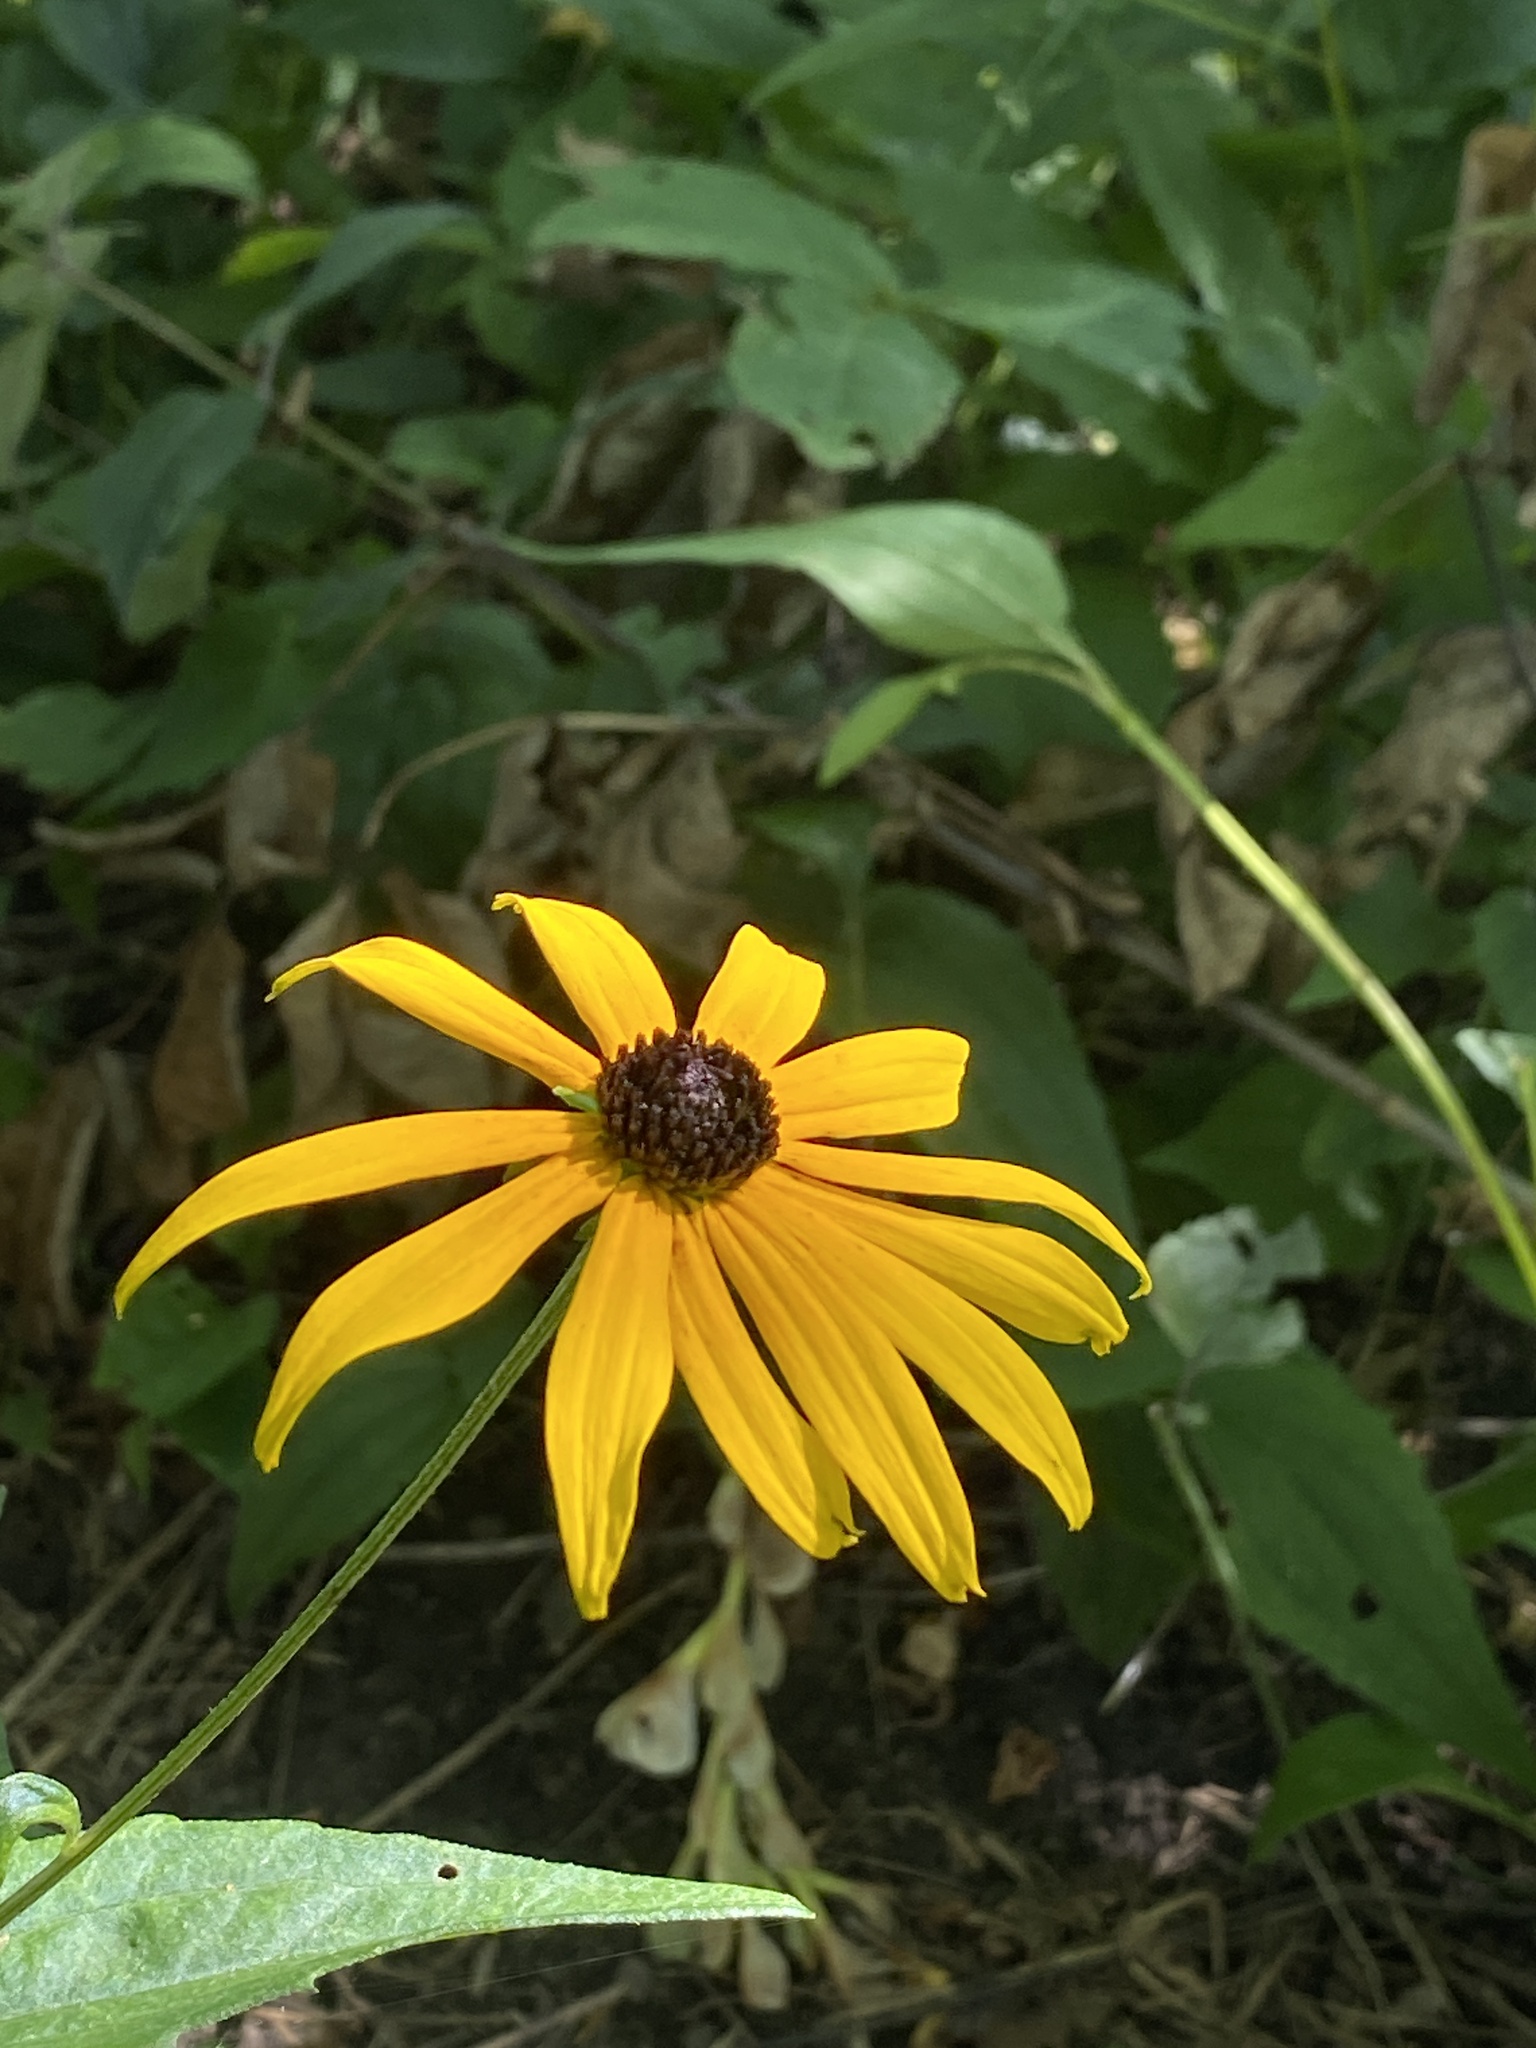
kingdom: Plantae
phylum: Tracheophyta
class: Magnoliopsida
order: Asterales
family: Asteraceae
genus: Rudbeckia
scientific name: Rudbeckia hirta
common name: Black-eyed-susan
